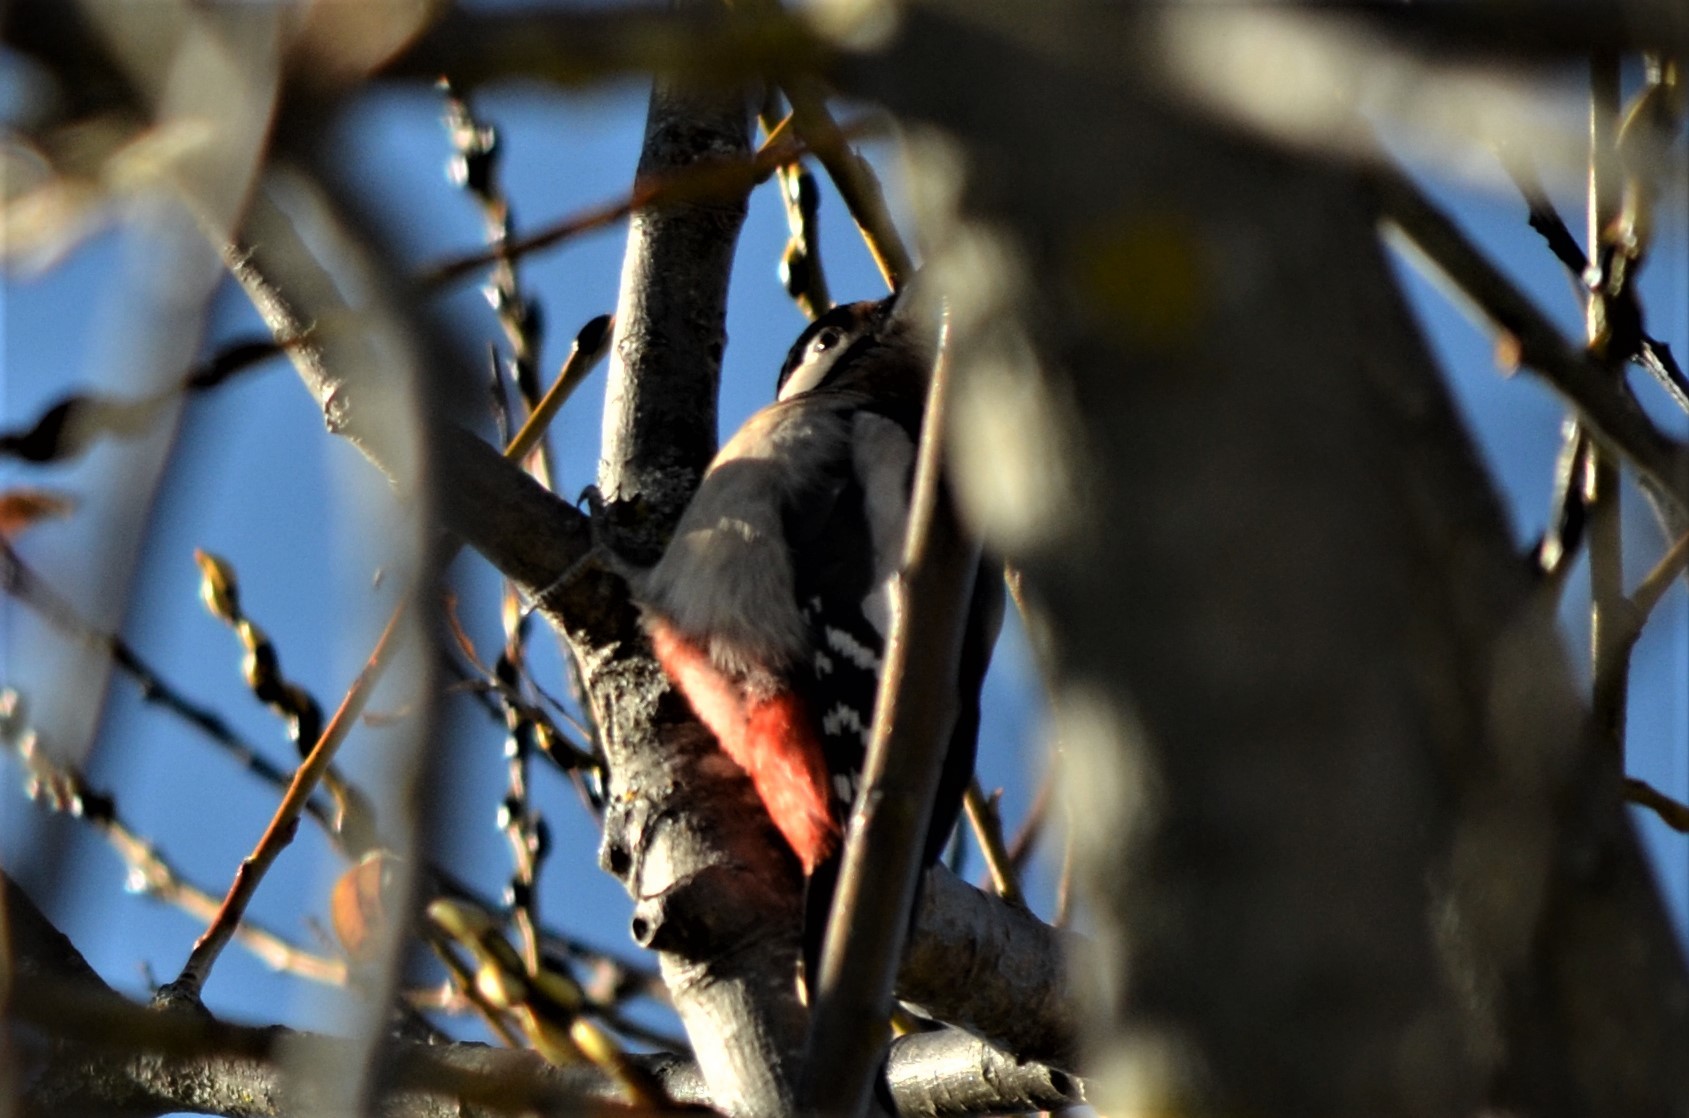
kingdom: Animalia
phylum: Chordata
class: Aves
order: Piciformes
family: Picidae
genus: Dendrocopos
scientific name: Dendrocopos major
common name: Great spotted woodpecker
